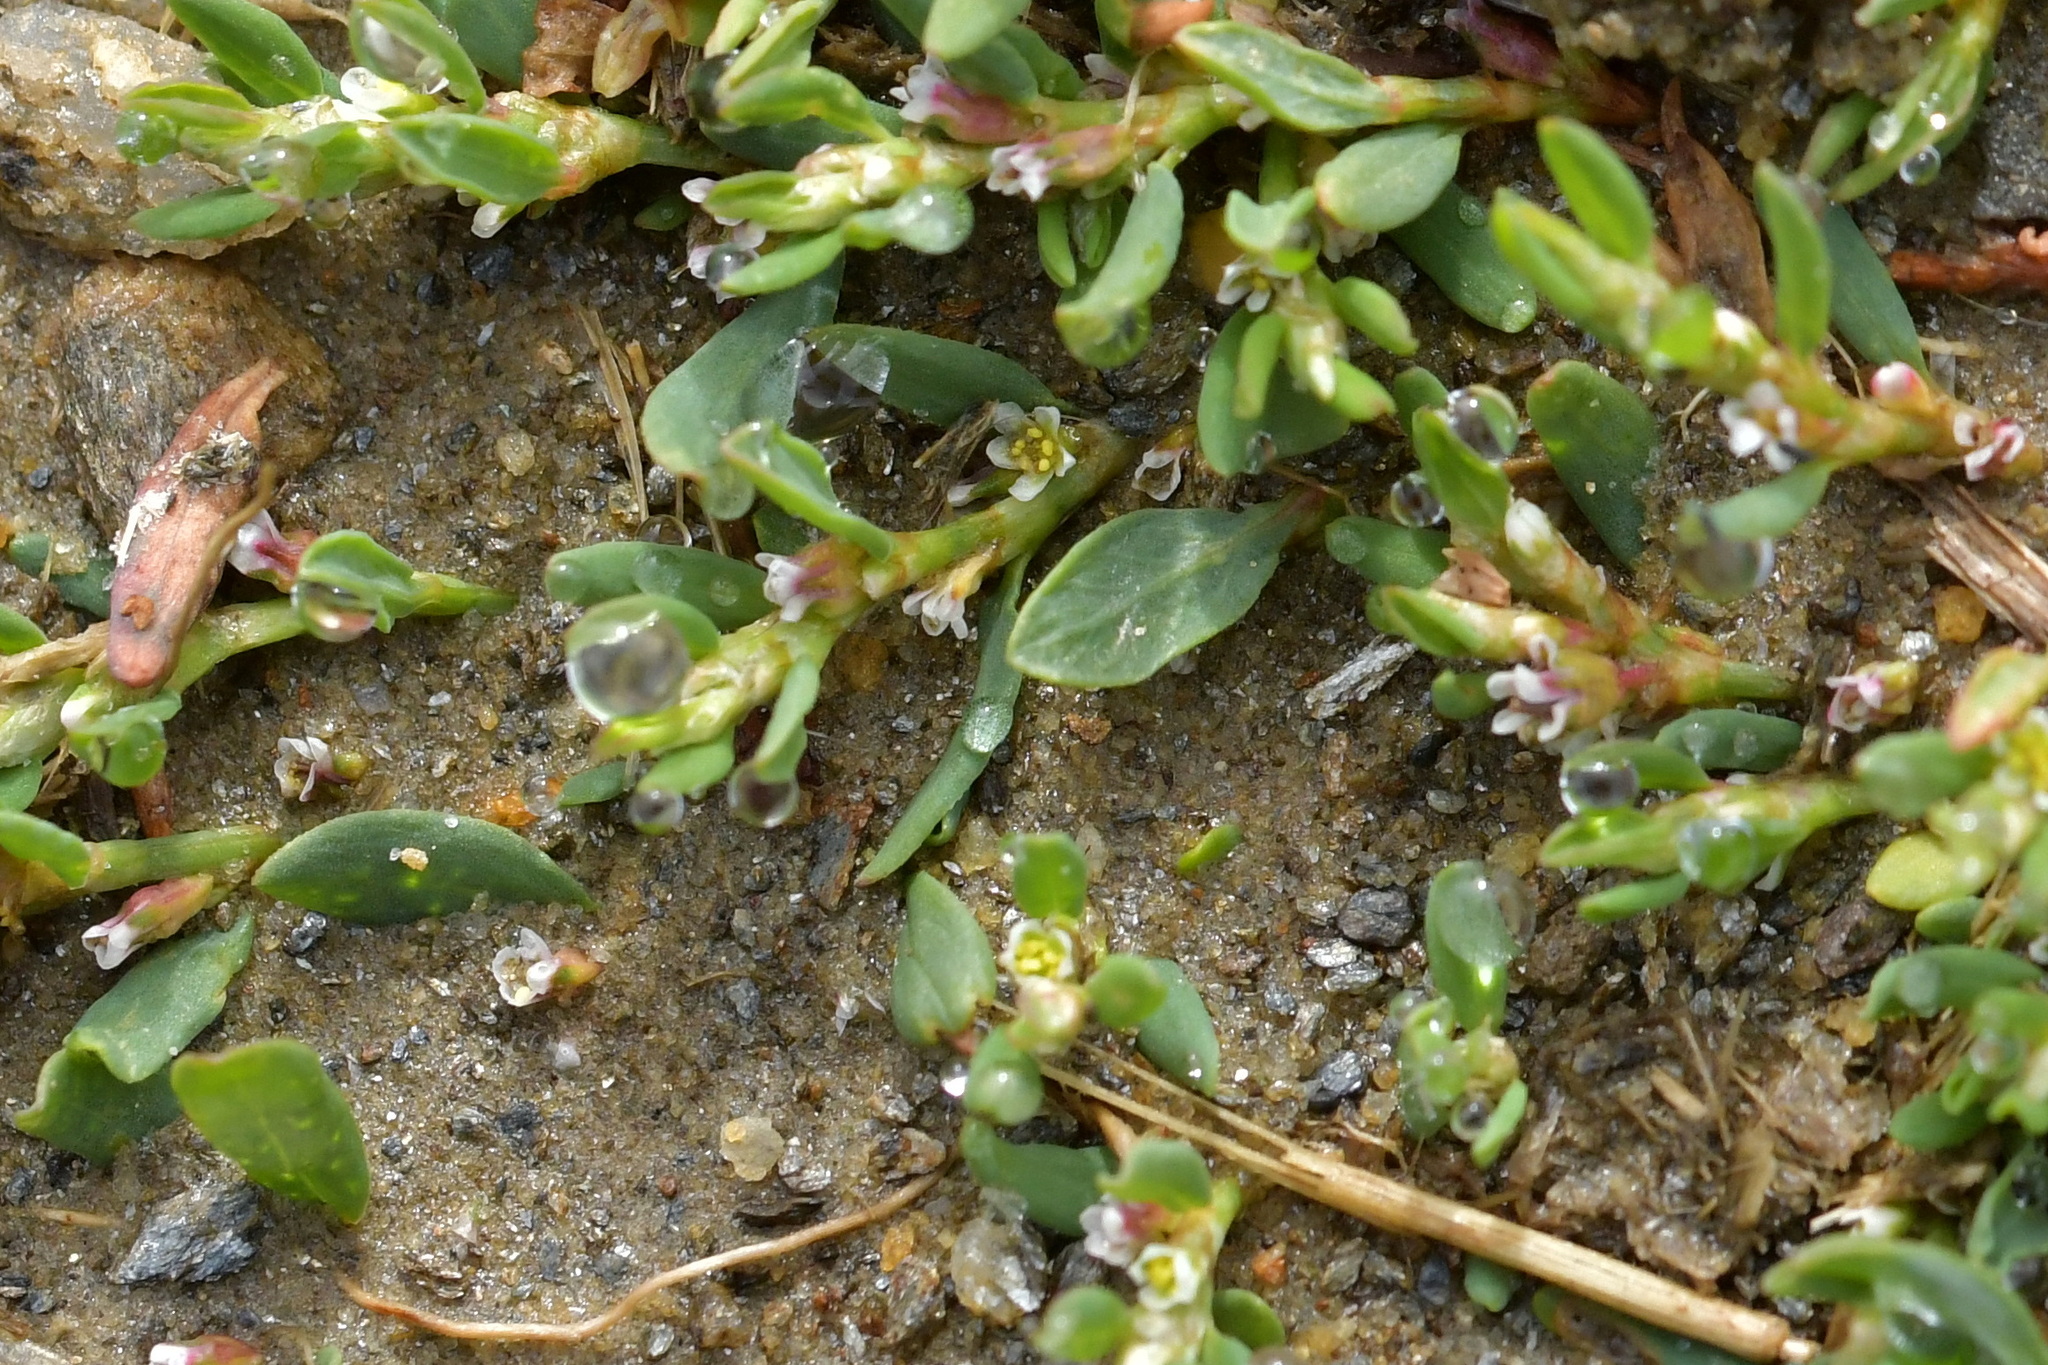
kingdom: Plantae
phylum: Tracheophyta
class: Magnoliopsida
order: Caryophyllales
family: Polygonaceae
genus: Polygonum
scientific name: Polygonum arenastrum
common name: Equal-leaved knotgrass
